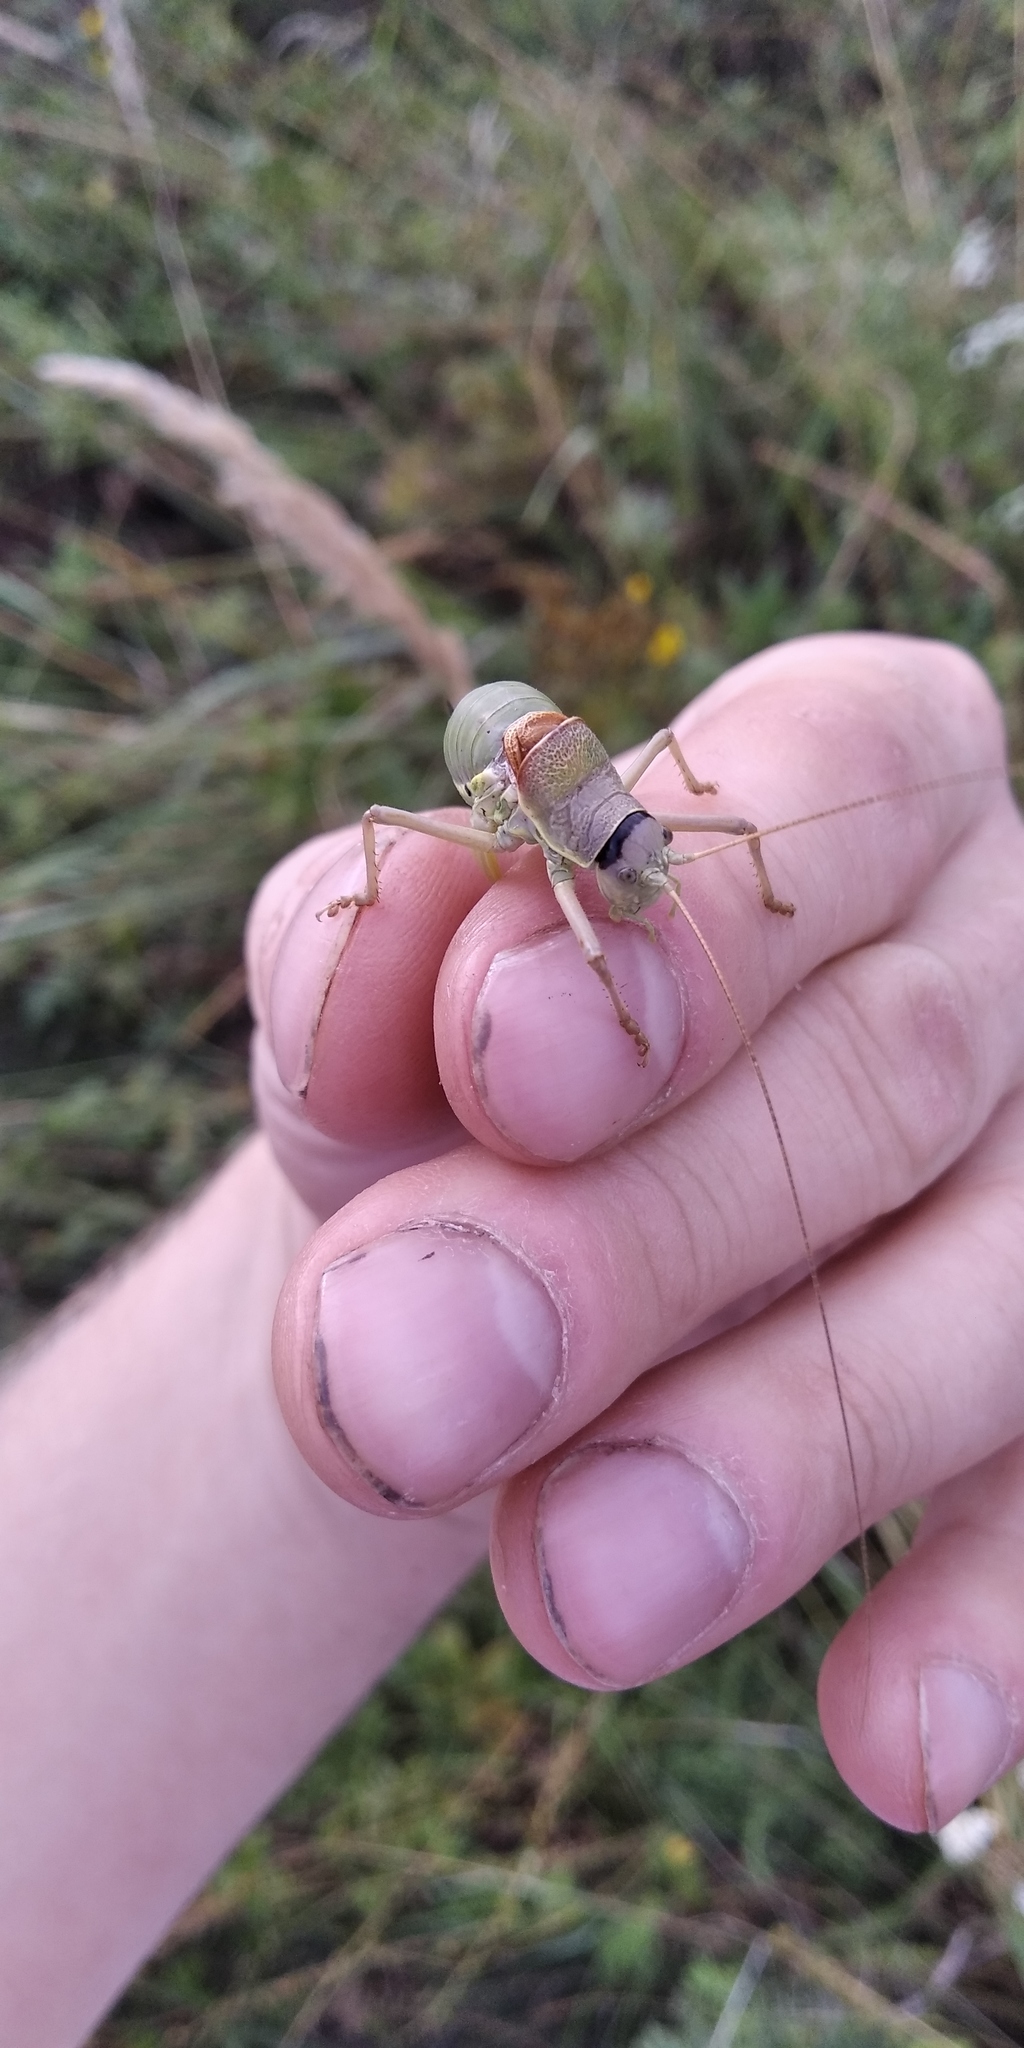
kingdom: Animalia
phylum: Arthropoda
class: Insecta
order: Orthoptera
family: Tettigoniidae
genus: Ephippiger
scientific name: Ephippiger ephippiger
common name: Eastern saddle bush-cricket
